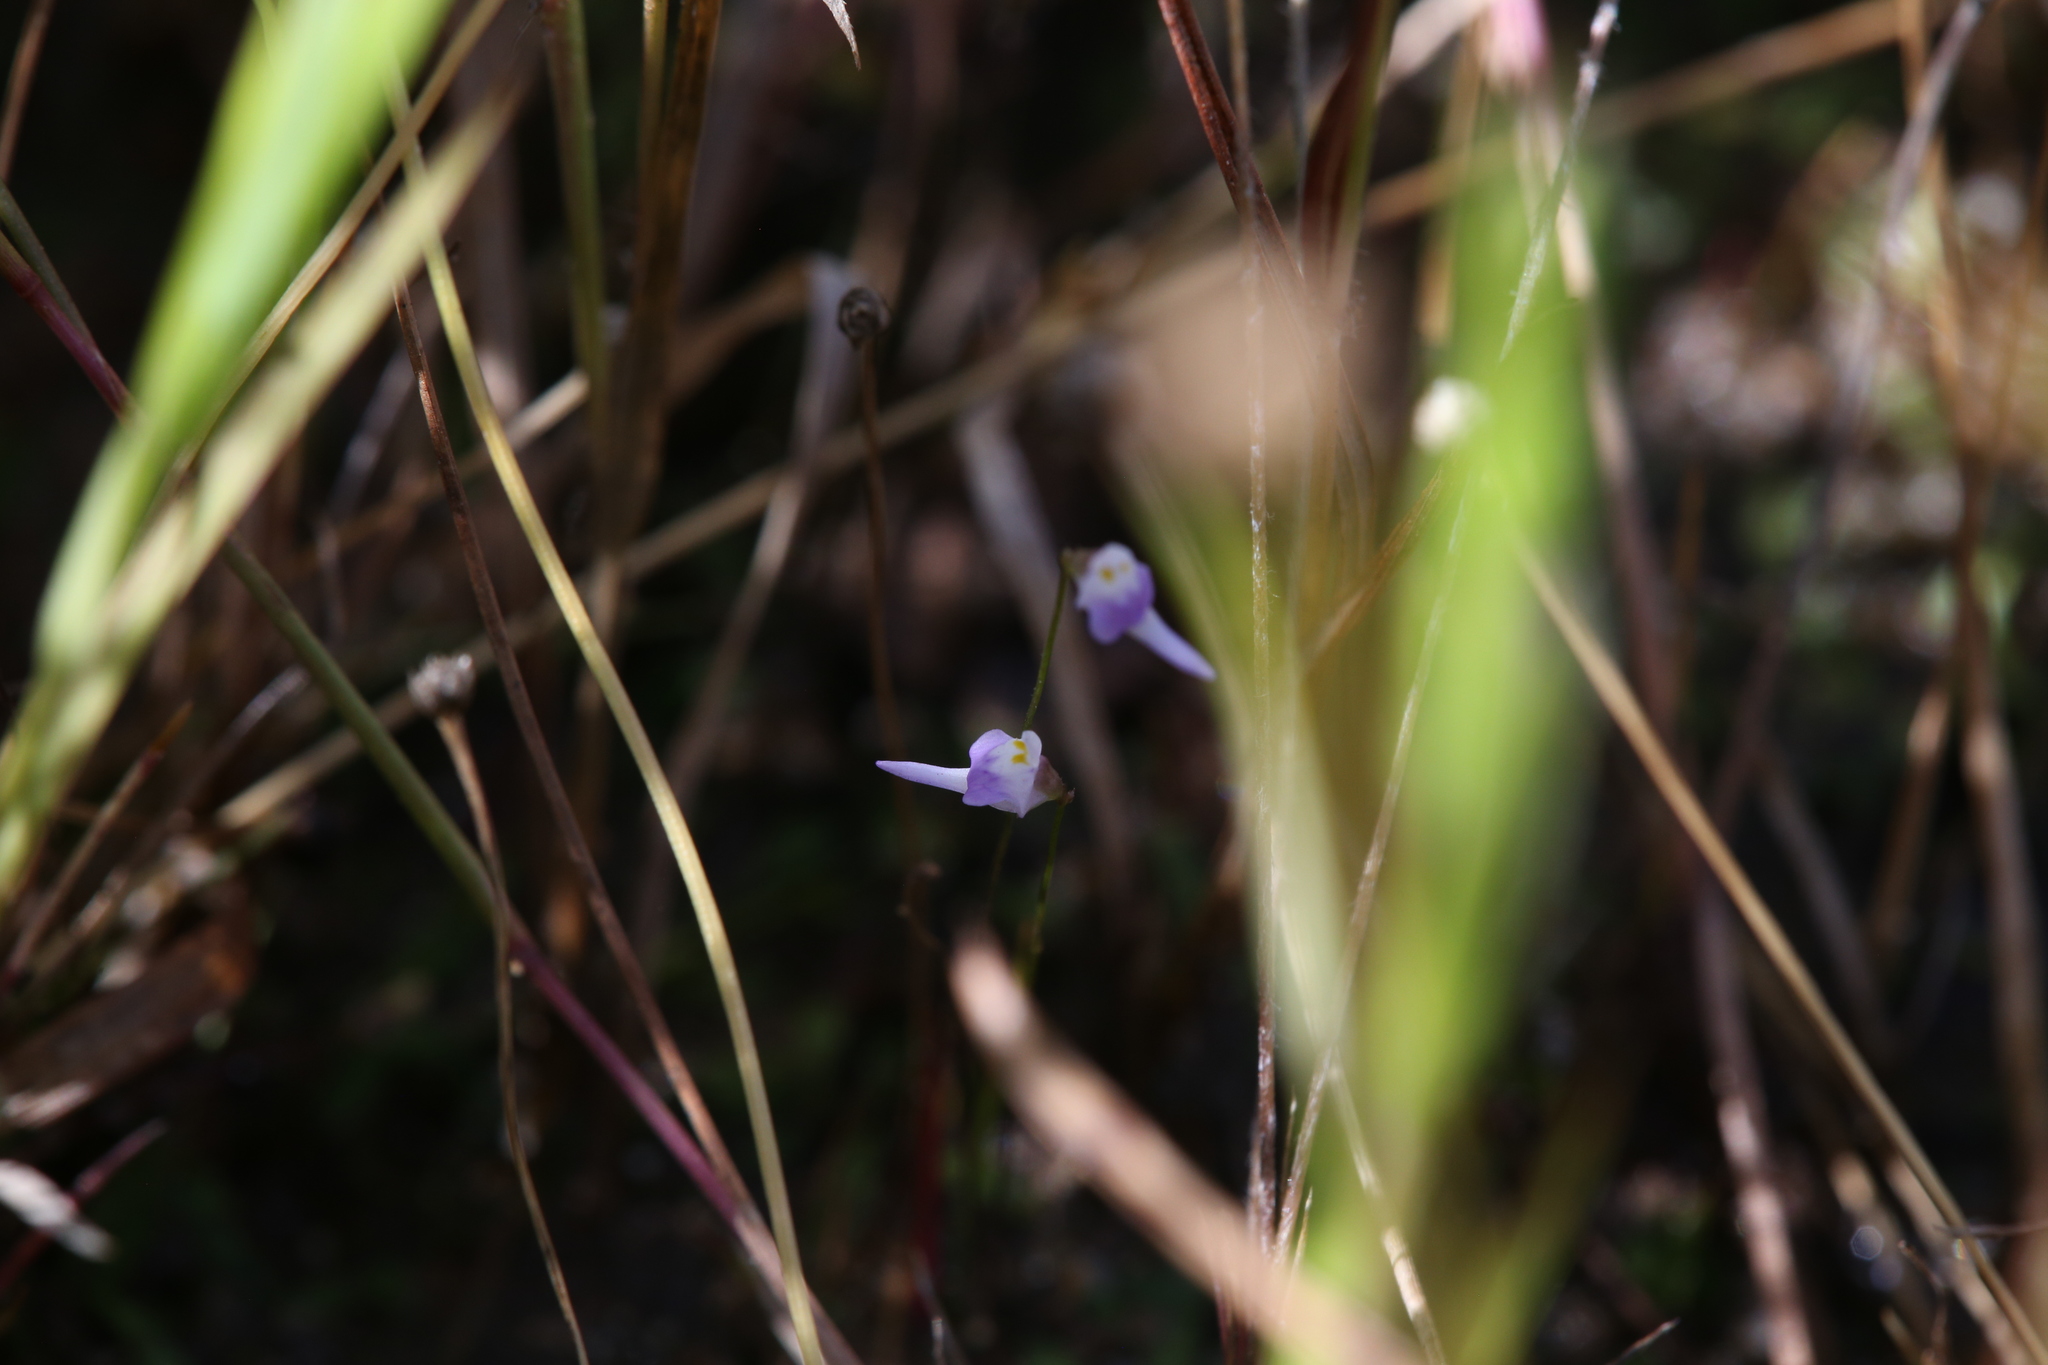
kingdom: Plantae
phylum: Tracheophyta
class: Magnoliopsida
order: Lamiales
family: Lentibulariaceae
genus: Utricularia
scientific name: Utricularia geoffrayi
